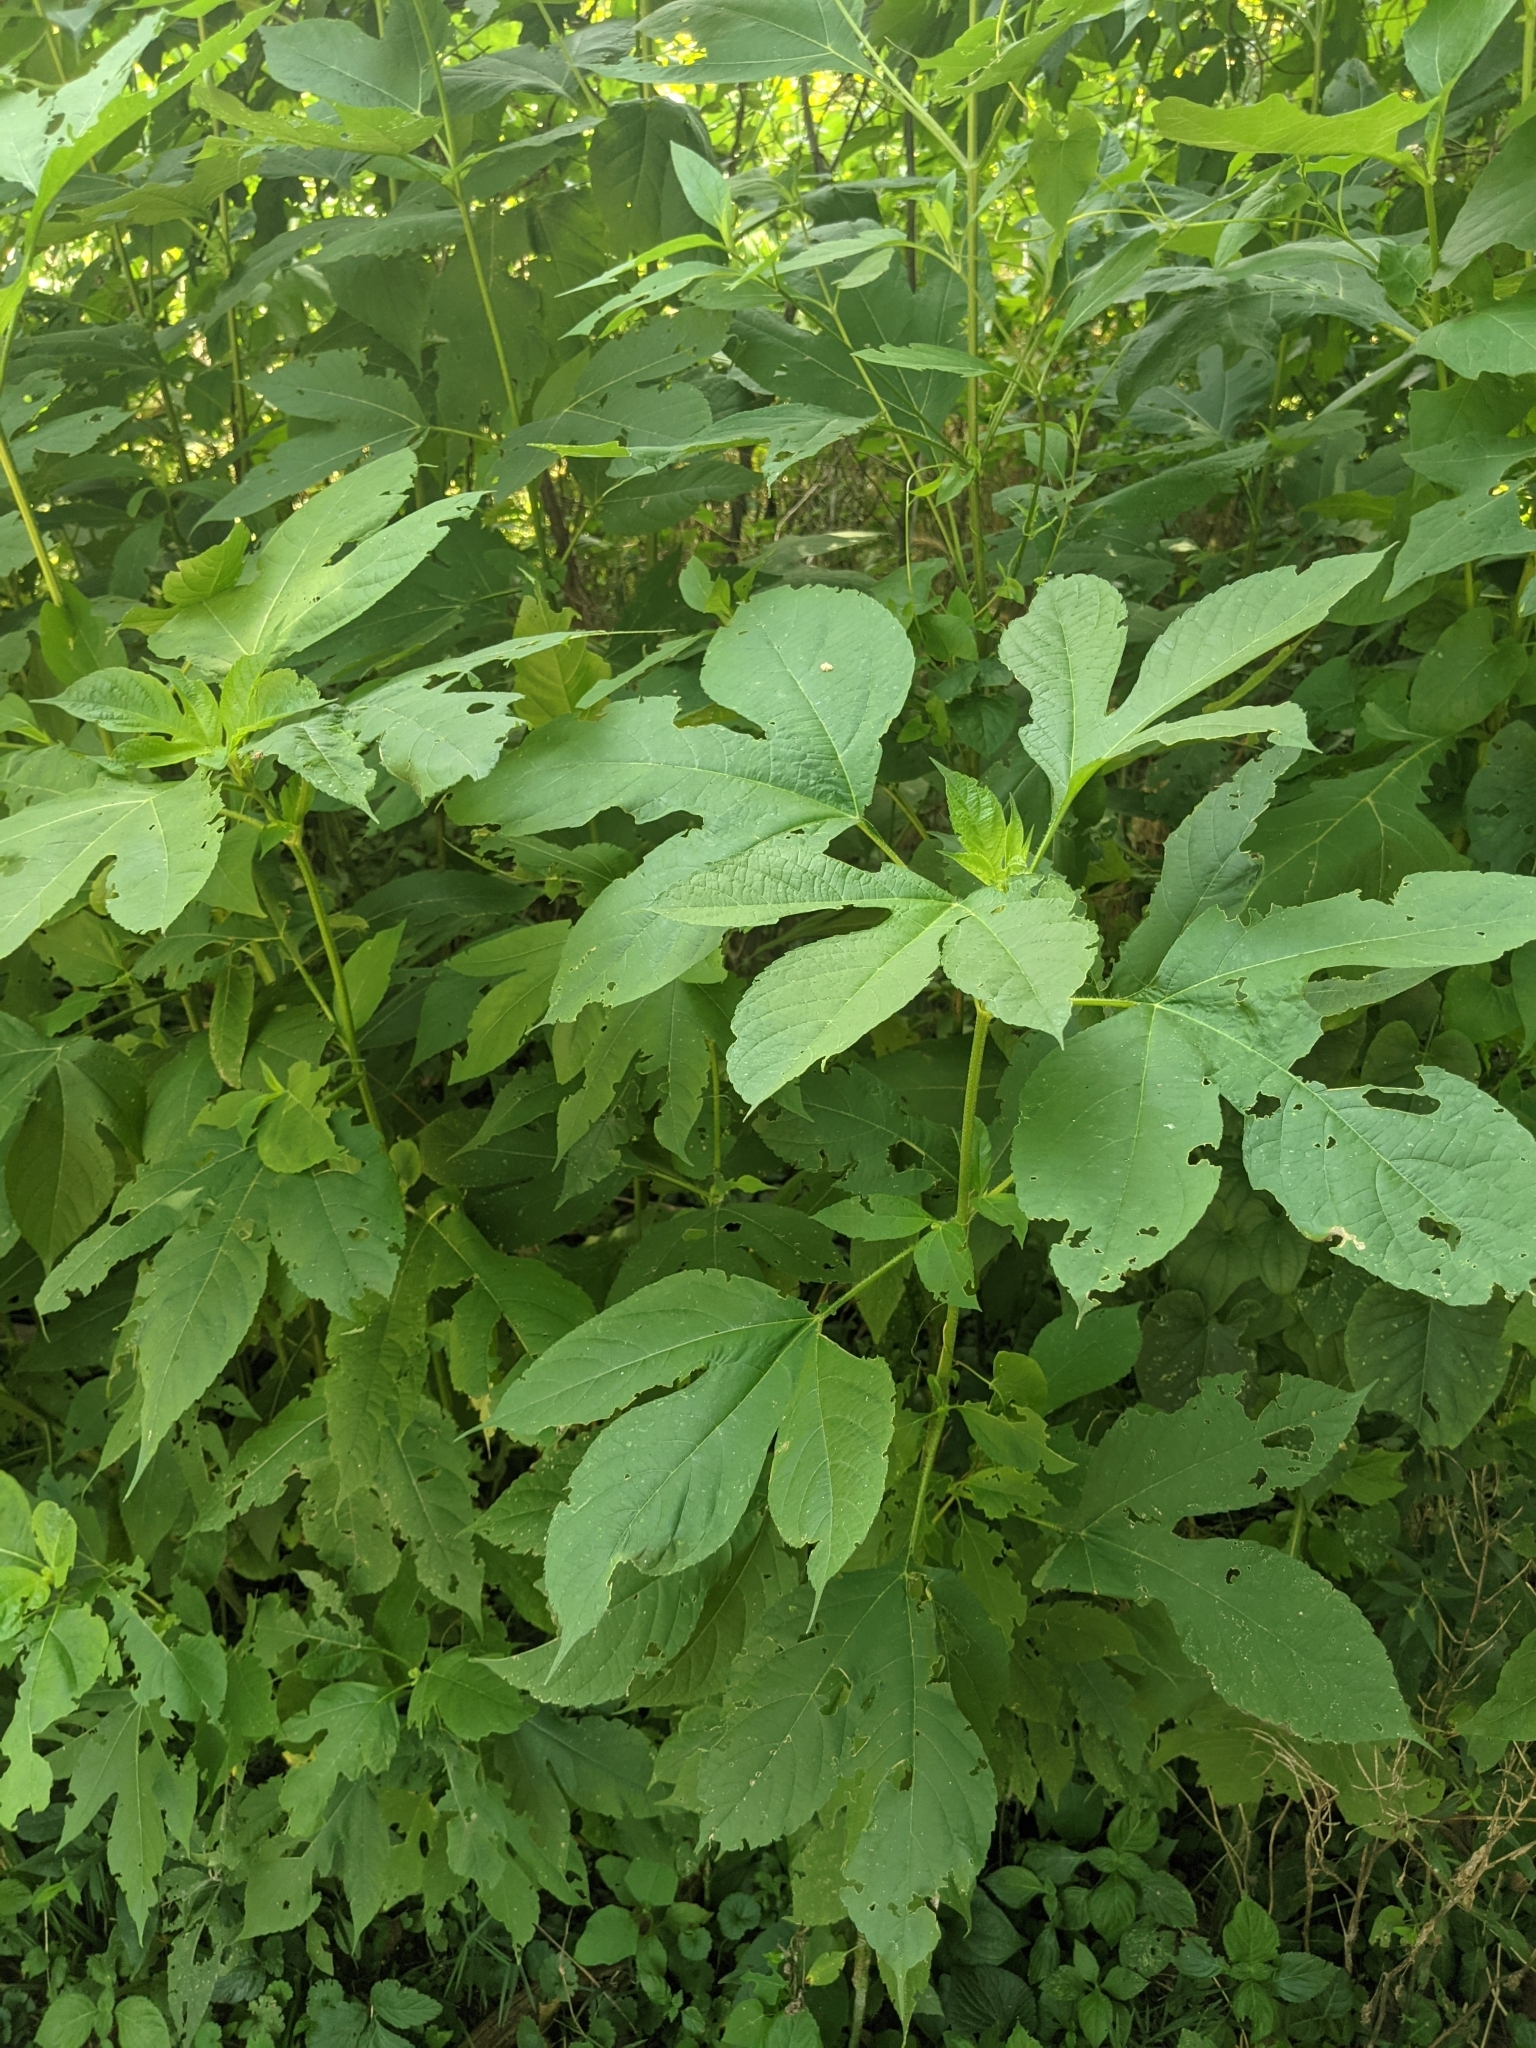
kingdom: Plantae
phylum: Tracheophyta
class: Magnoliopsida
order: Asterales
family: Asteraceae
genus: Ambrosia
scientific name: Ambrosia trifida
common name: Giant ragweed
